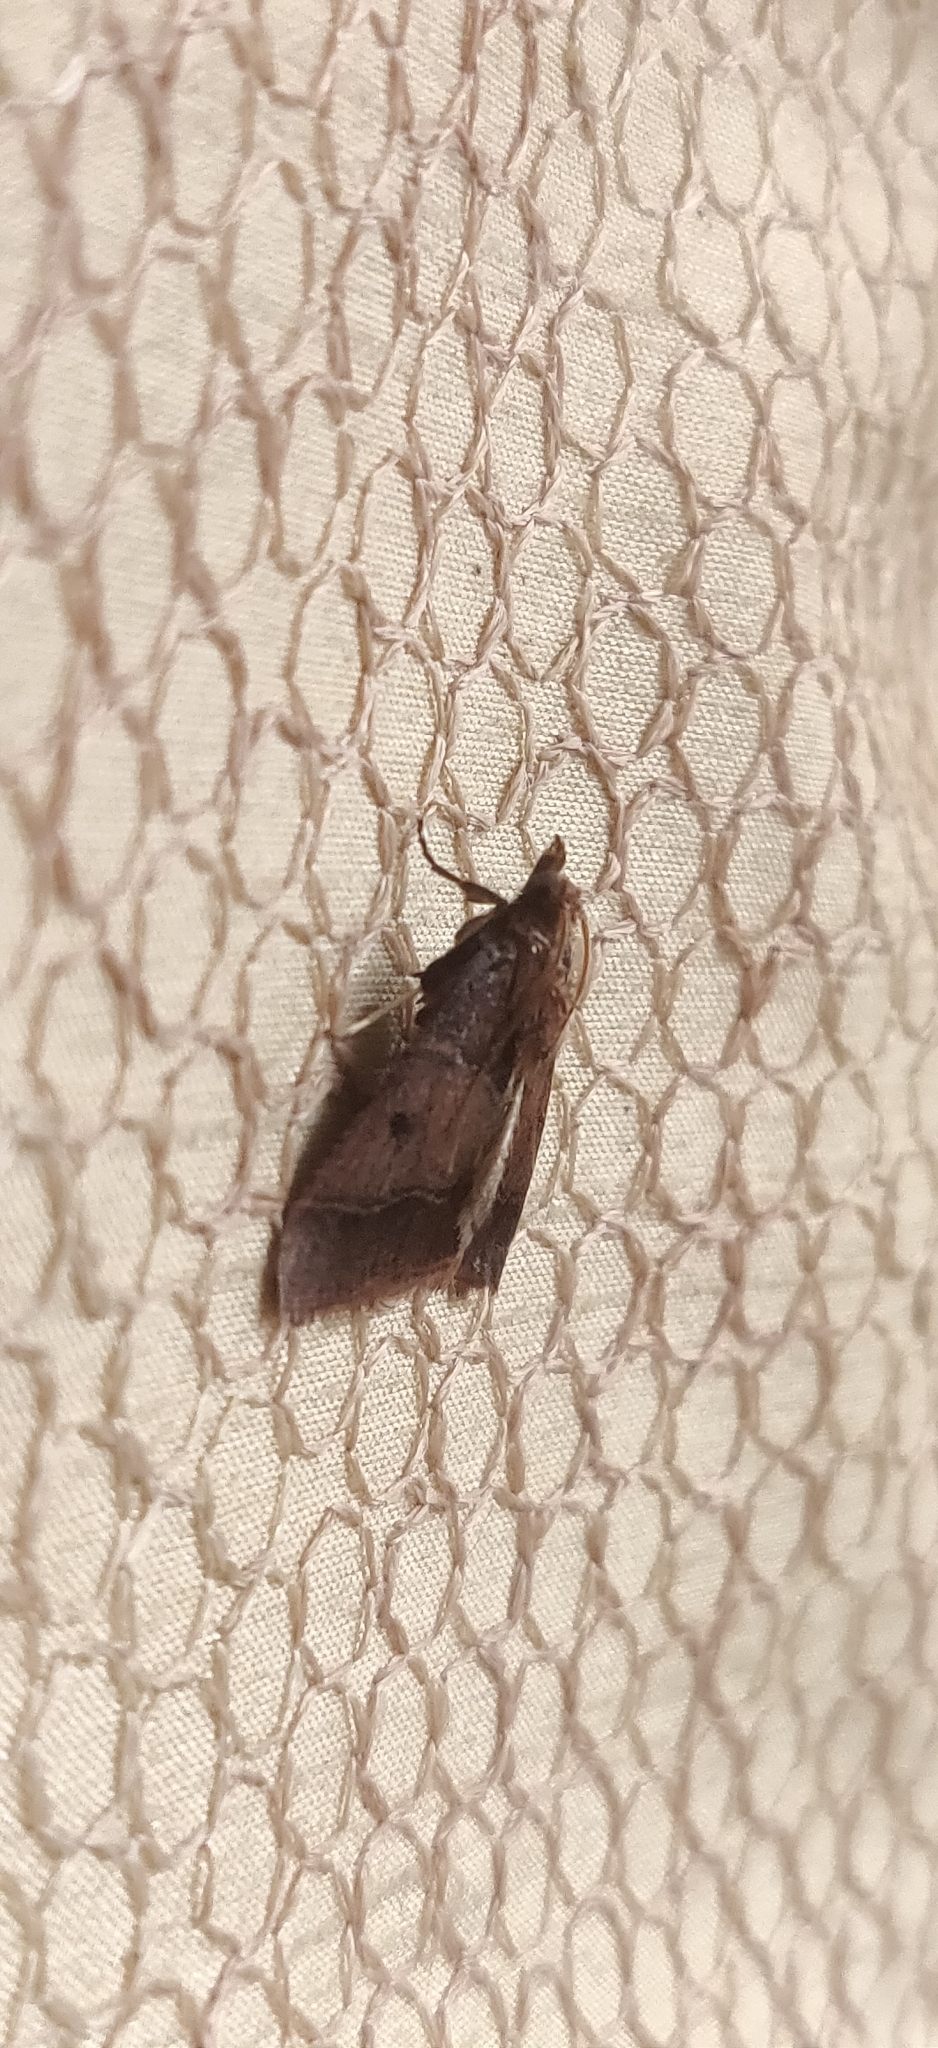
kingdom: Animalia
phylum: Arthropoda
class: Insecta
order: Lepidoptera
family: Pyralidae
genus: Arippara
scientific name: Arippara indicator
